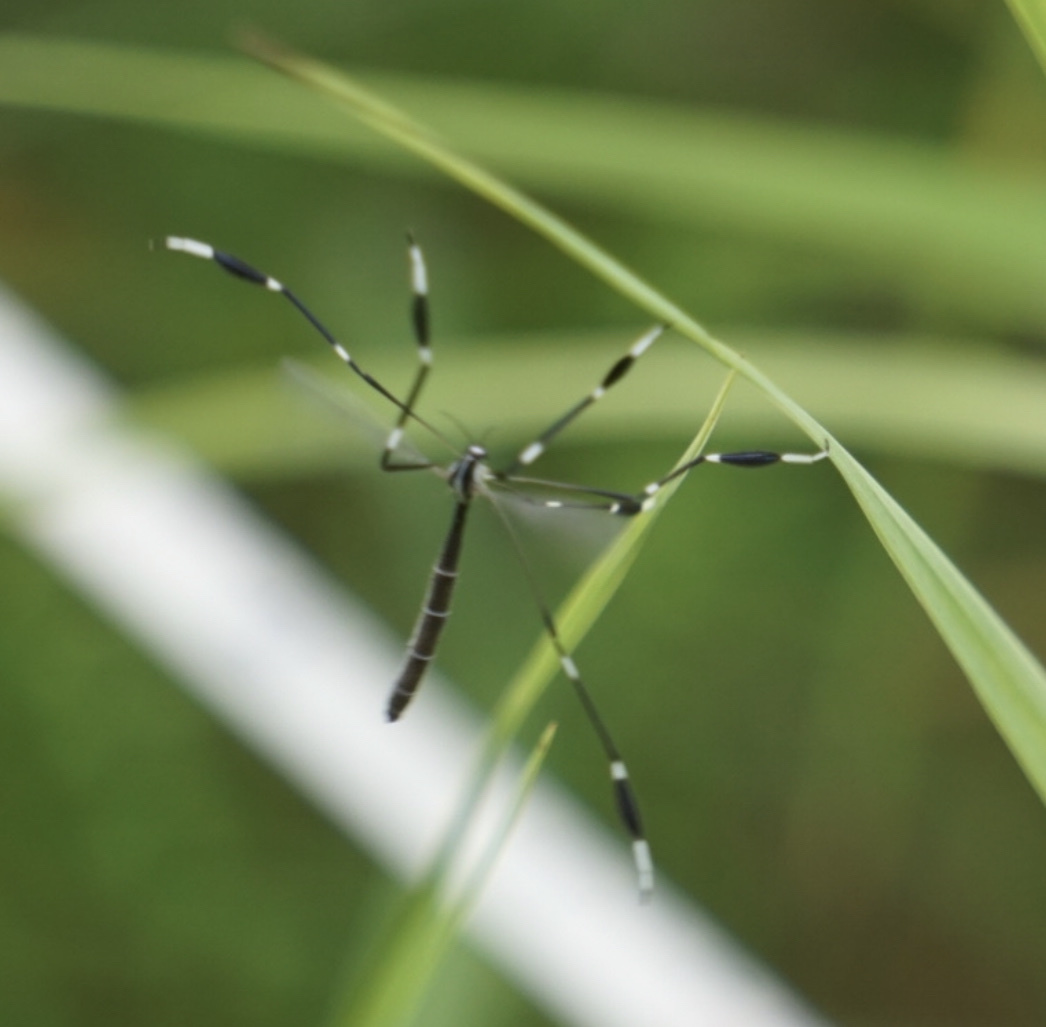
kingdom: Animalia
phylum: Arthropoda
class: Insecta
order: Diptera
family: Ptychopteridae
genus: Bittacomorpha
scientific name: Bittacomorpha clavipes
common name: Eastern phantom crane fly
